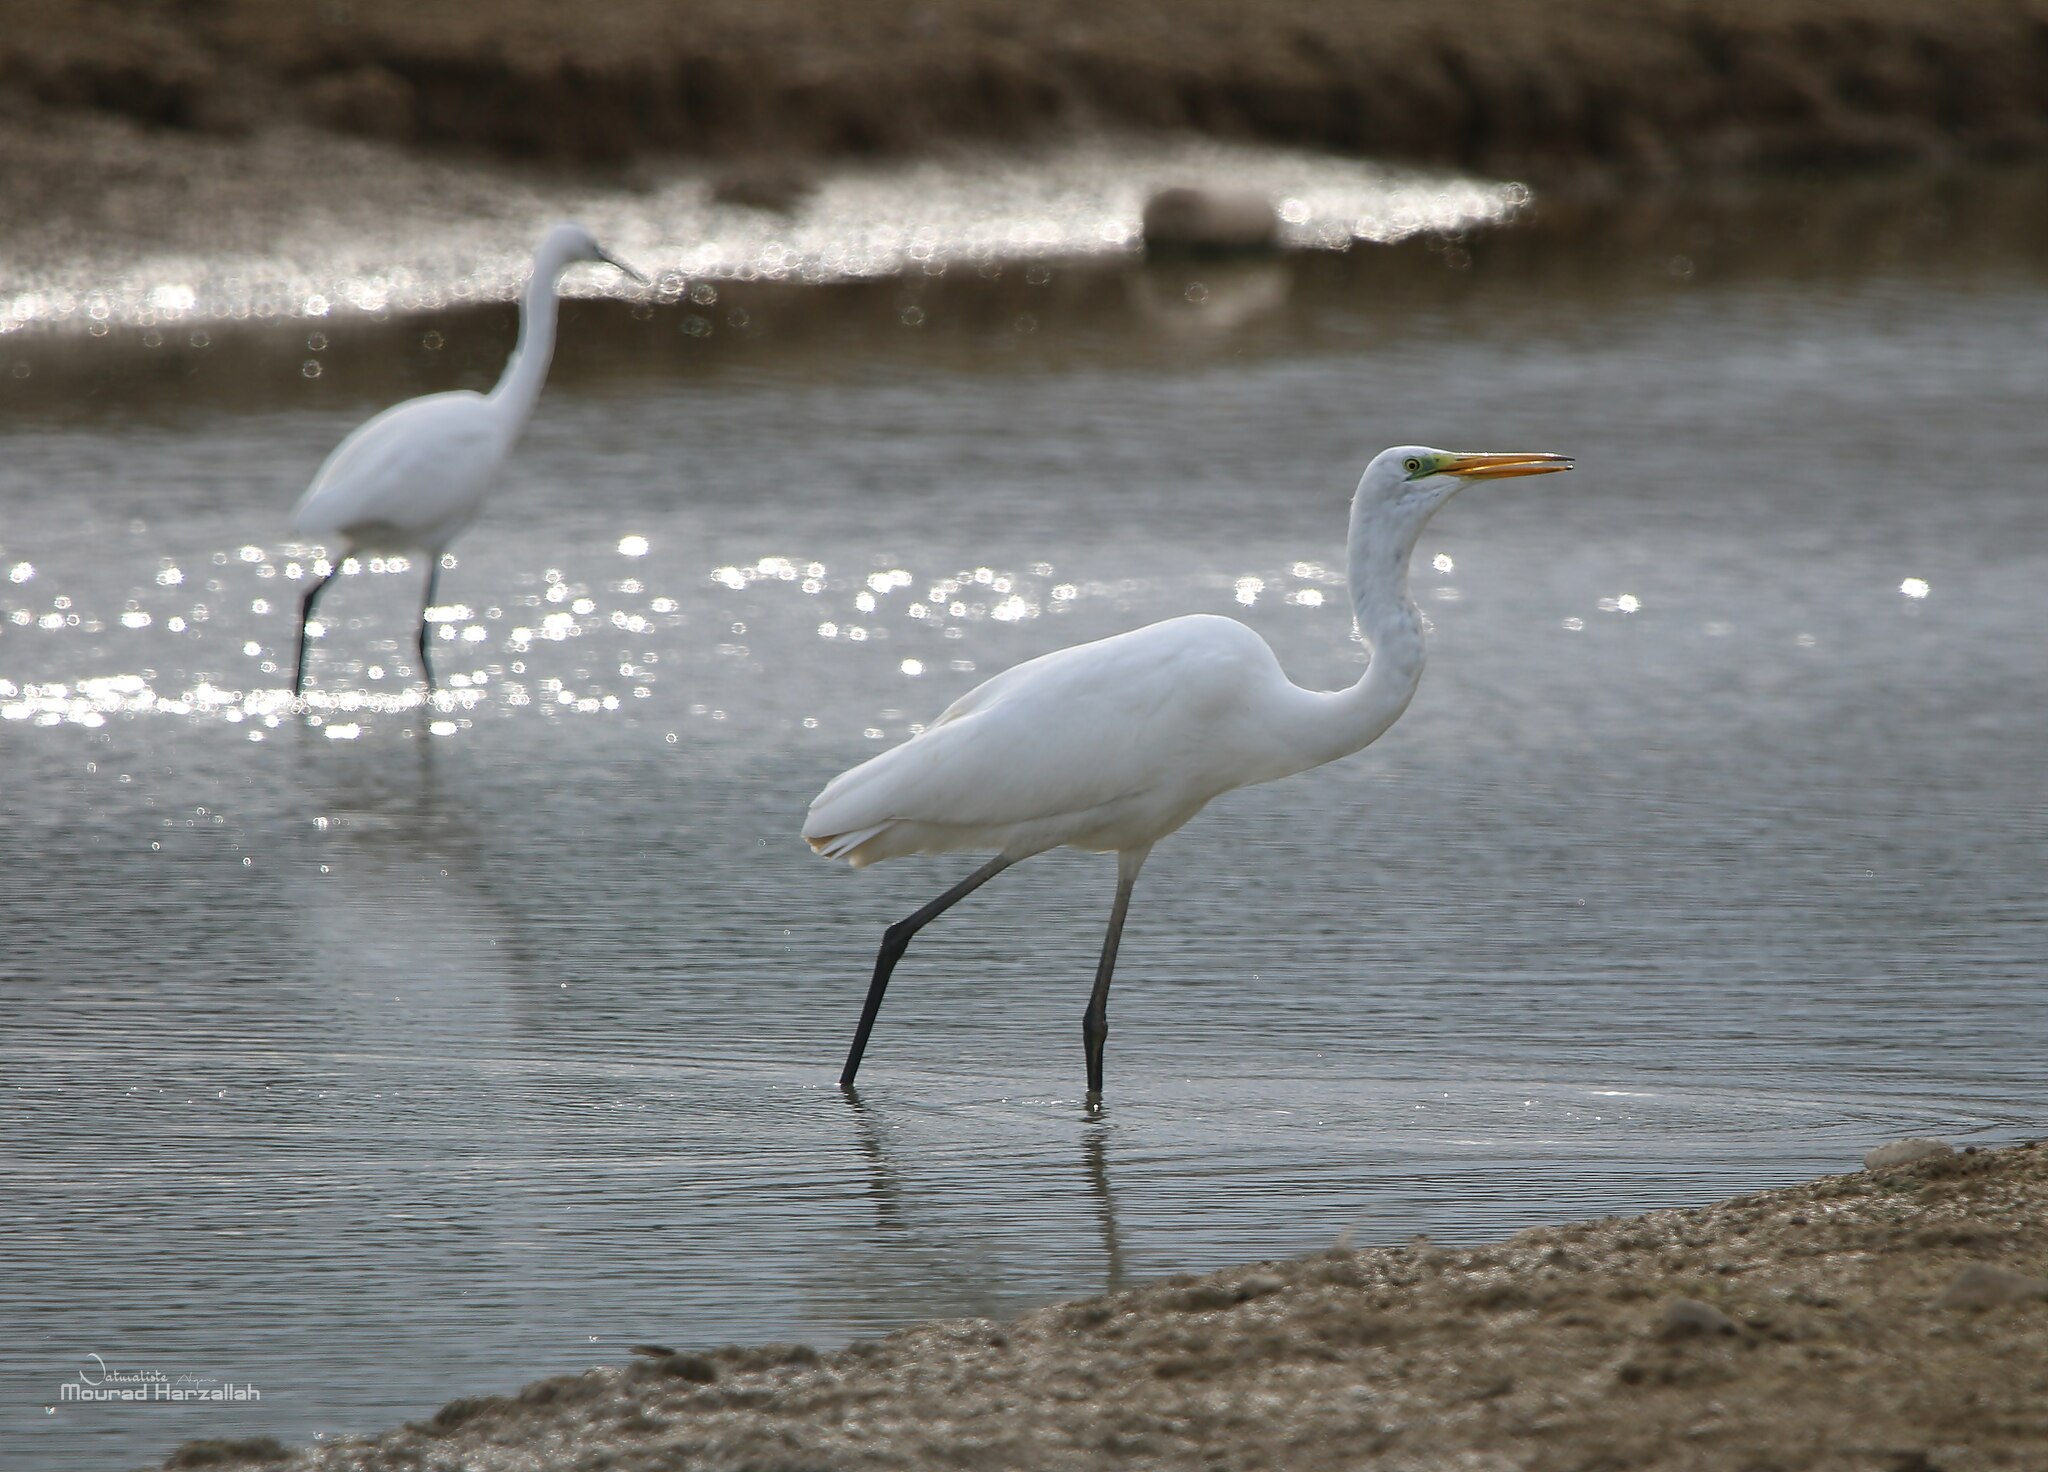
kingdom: Animalia
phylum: Chordata
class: Aves
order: Pelecaniformes
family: Ardeidae
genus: Ardea
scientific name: Ardea alba
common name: Great egret
